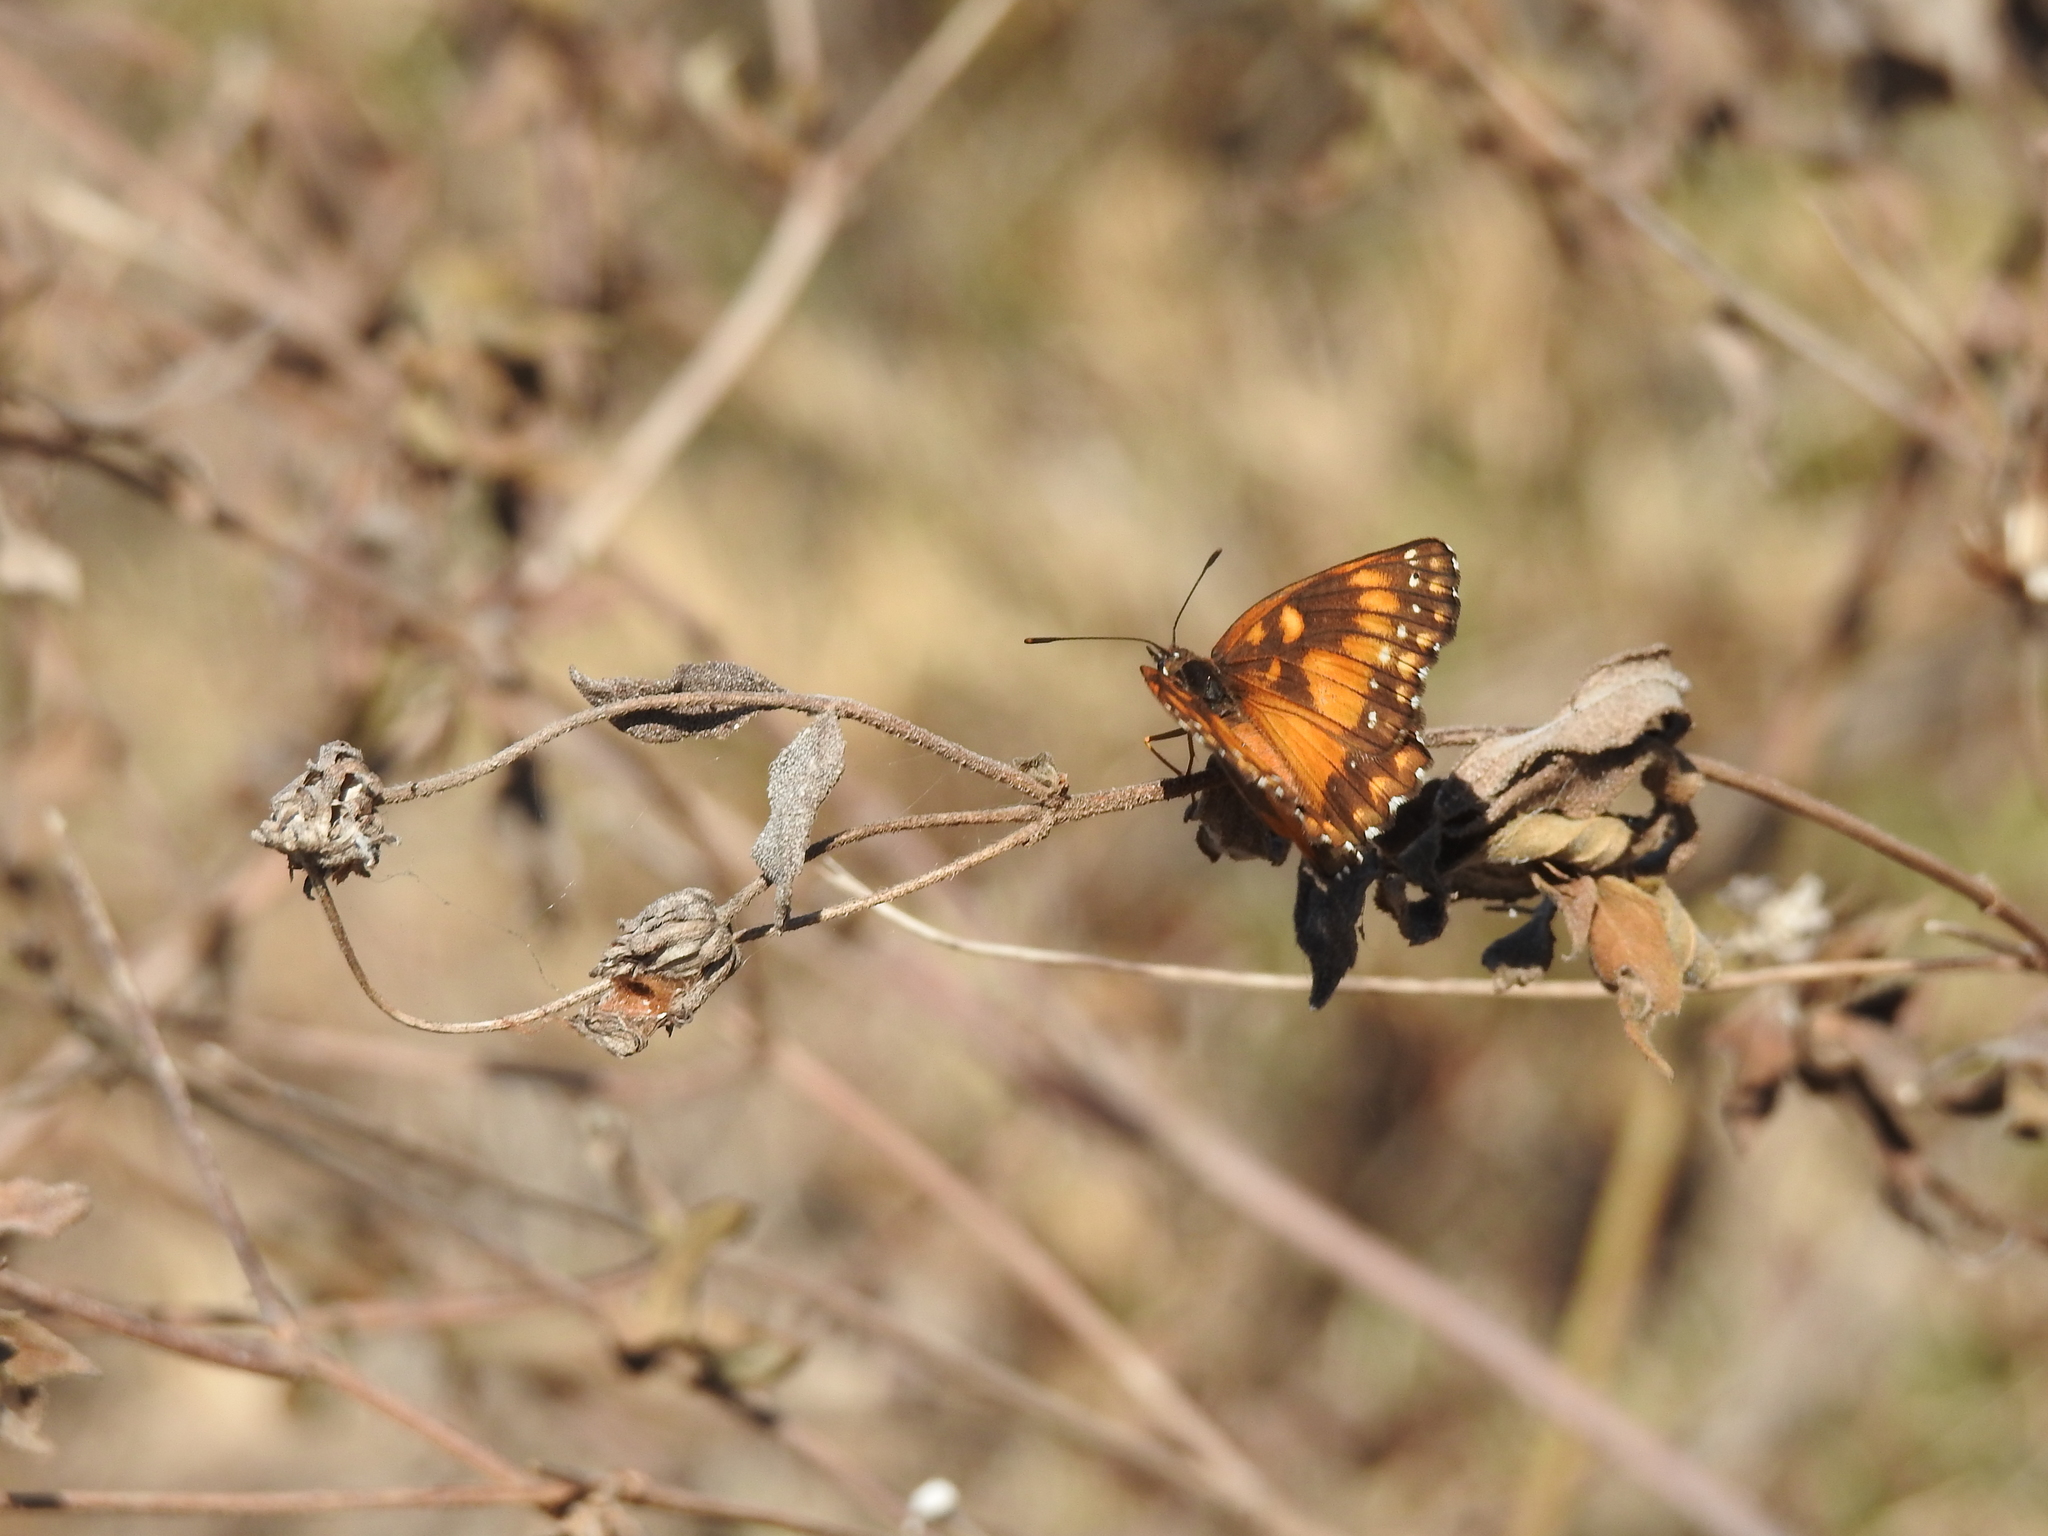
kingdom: Animalia
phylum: Arthropoda
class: Insecta
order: Lepidoptera
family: Nymphalidae
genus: Chlosyne
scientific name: Chlosyne lacinia
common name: Bordered patch
